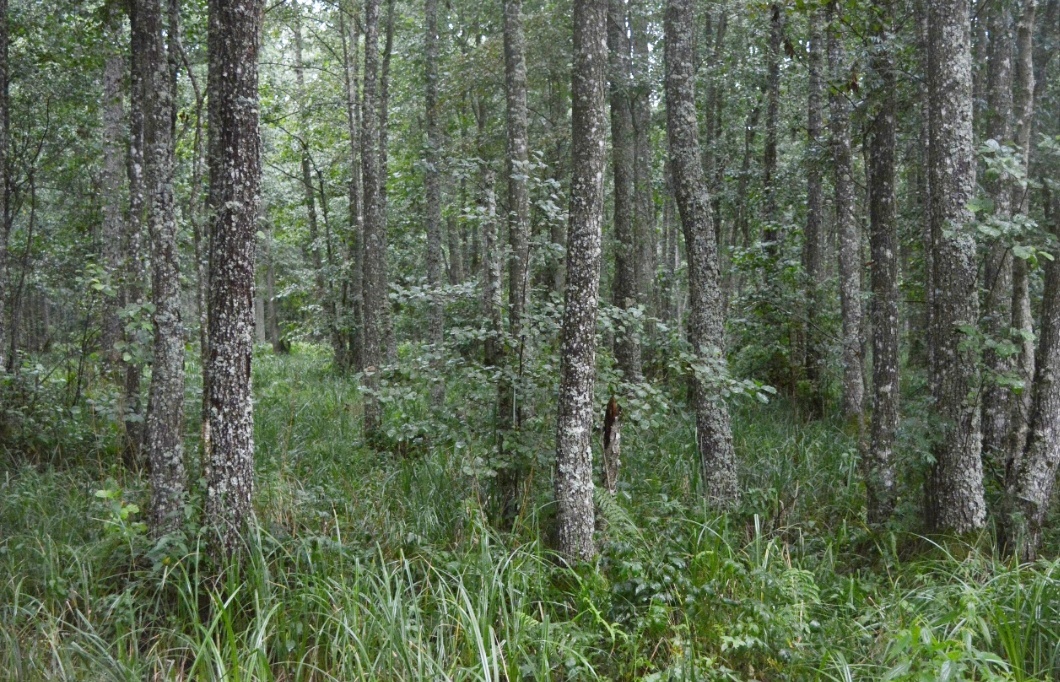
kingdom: Plantae
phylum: Tracheophyta
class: Magnoliopsida
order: Fagales
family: Betulaceae
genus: Alnus
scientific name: Alnus glutinosa
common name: Black alder
